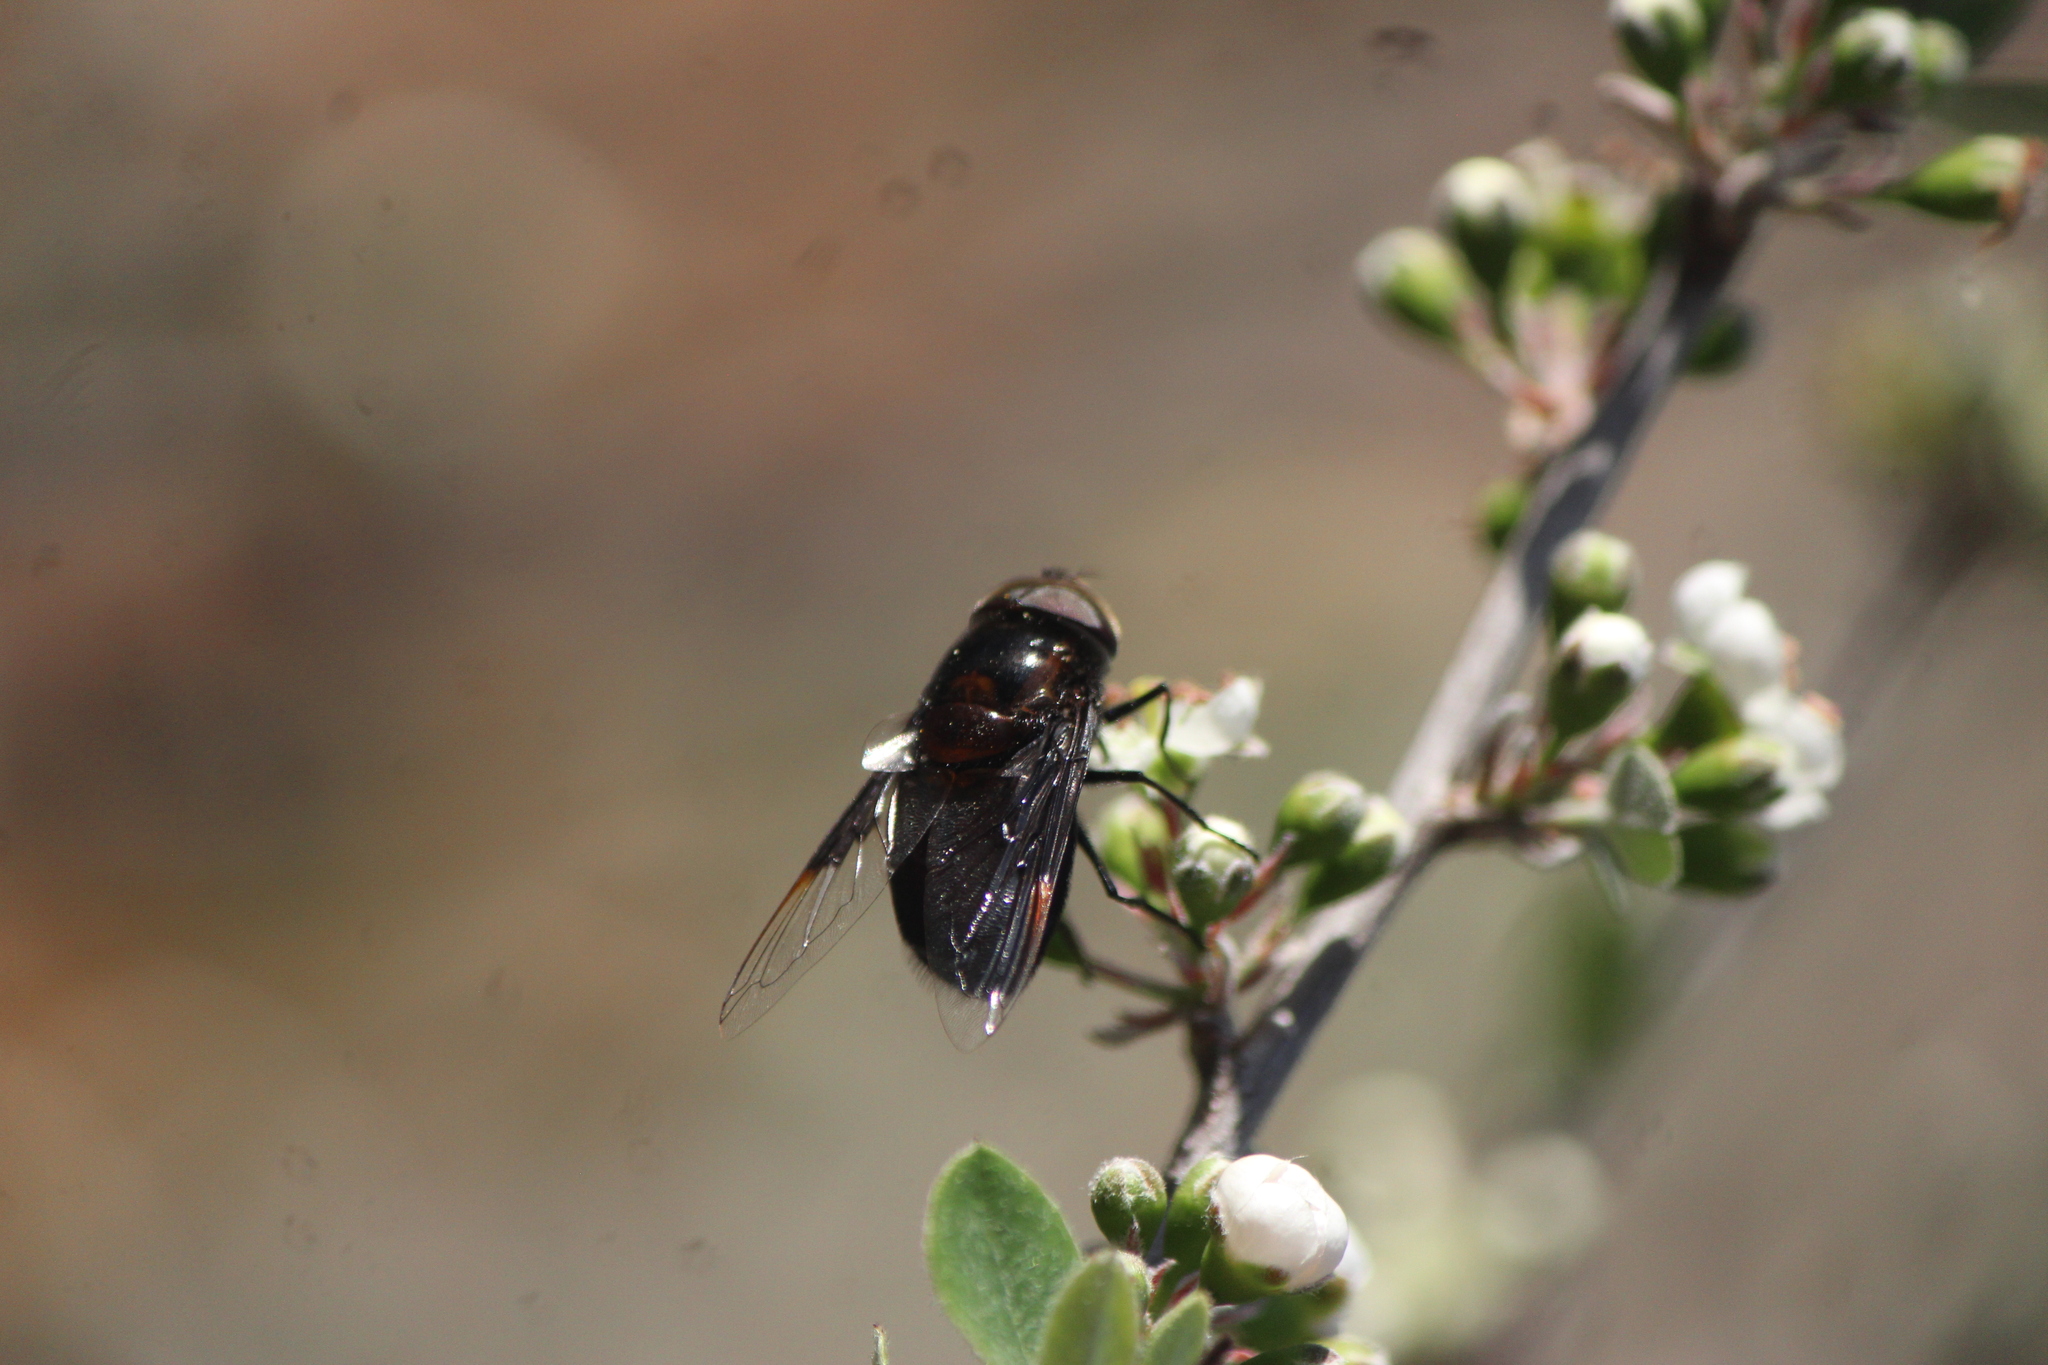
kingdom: Animalia
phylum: Arthropoda
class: Insecta
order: Diptera
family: Syrphidae
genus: Copestylum
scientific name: Copestylum violaceum
